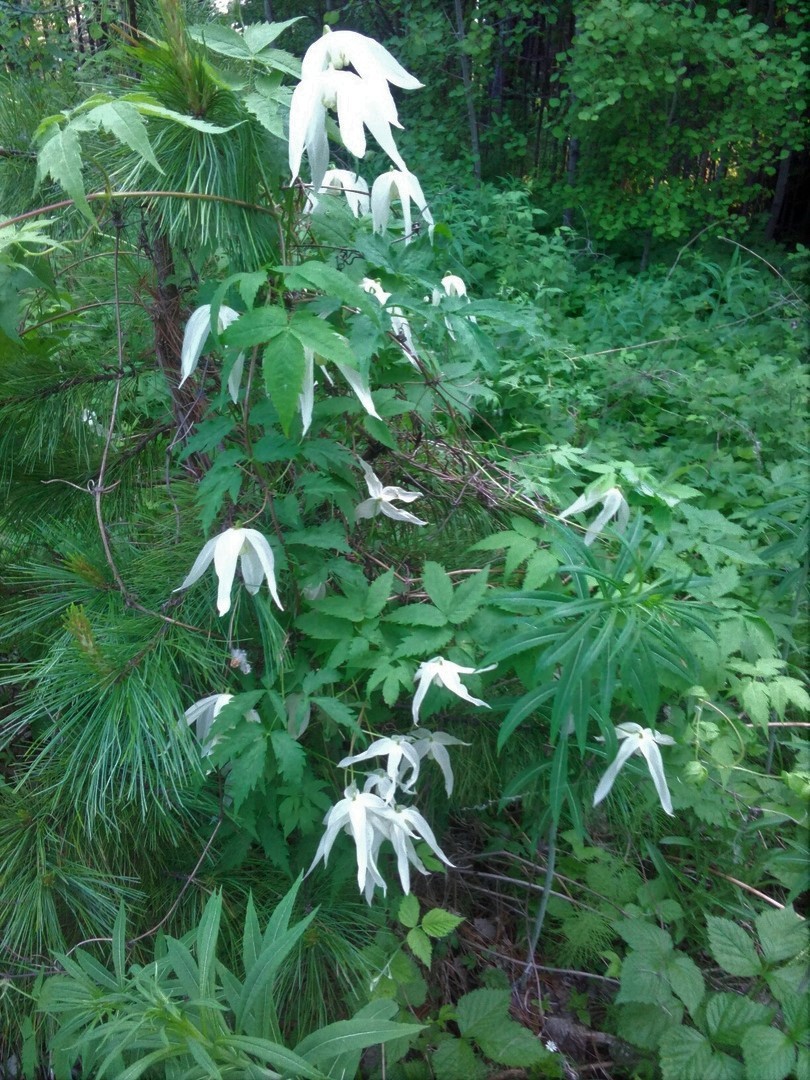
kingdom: Plantae
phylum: Tracheophyta
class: Magnoliopsida
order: Ranunculales
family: Ranunculaceae
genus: Clematis
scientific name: Clematis sibirica
